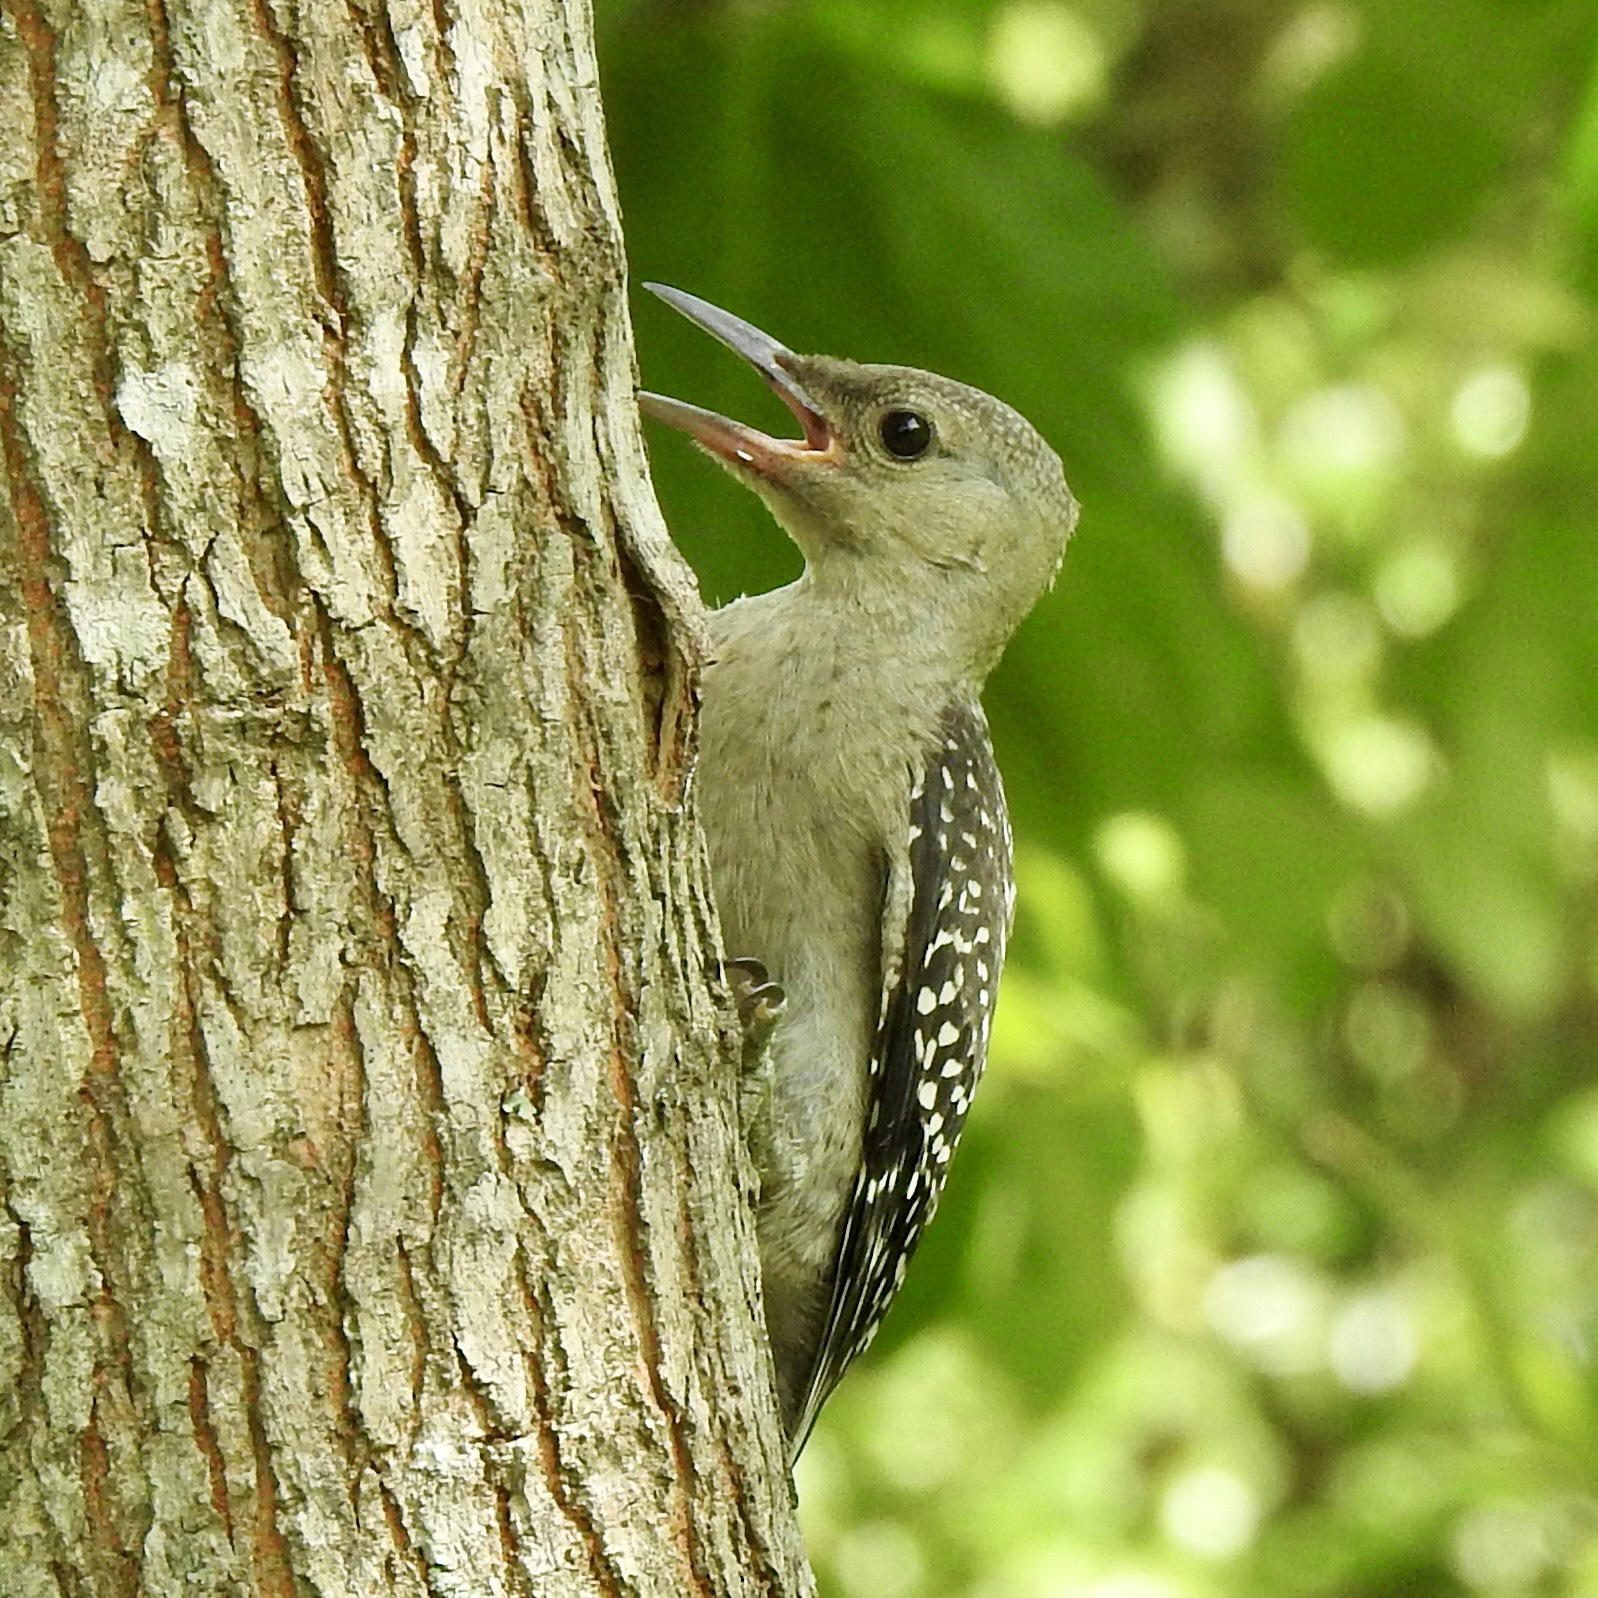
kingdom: Animalia
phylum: Chordata
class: Aves
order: Piciformes
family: Picidae
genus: Melanerpes
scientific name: Melanerpes carolinus
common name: Red-bellied woodpecker
